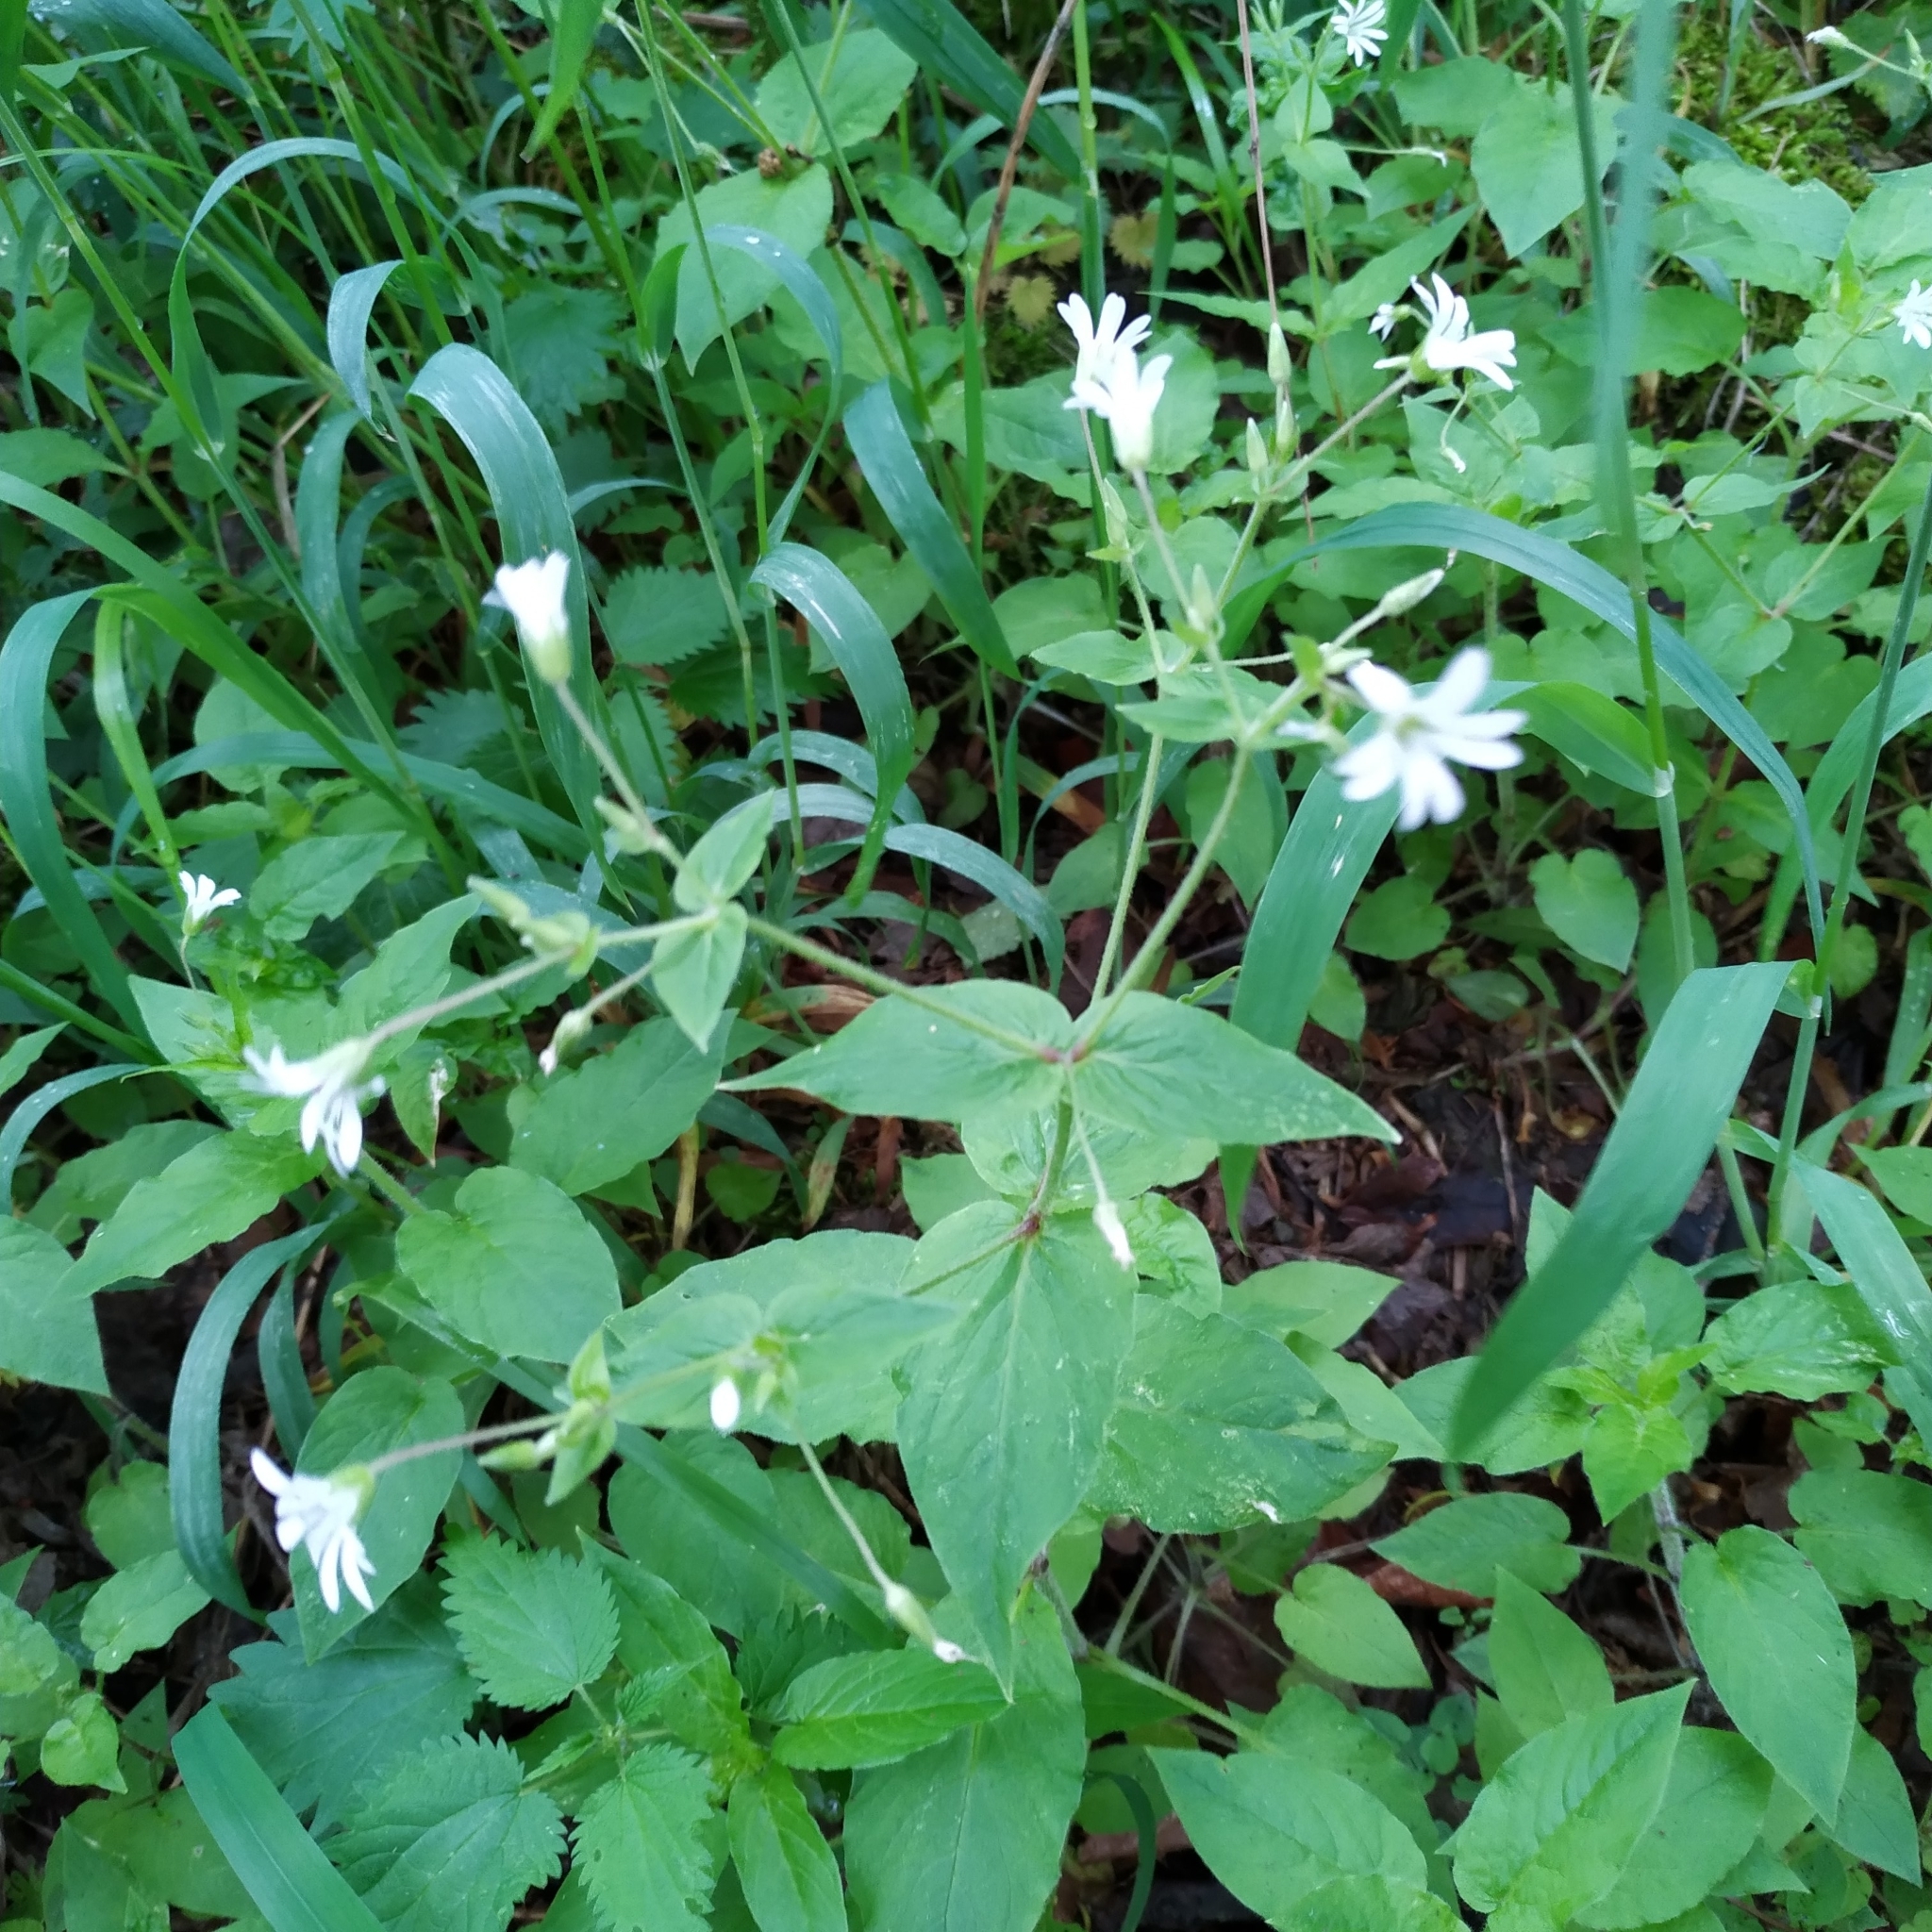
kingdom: Plantae
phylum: Tracheophyta
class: Magnoliopsida
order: Caryophyllales
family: Caryophyllaceae
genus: Stellaria
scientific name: Stellaria nemorum
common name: Wood stitchwort
